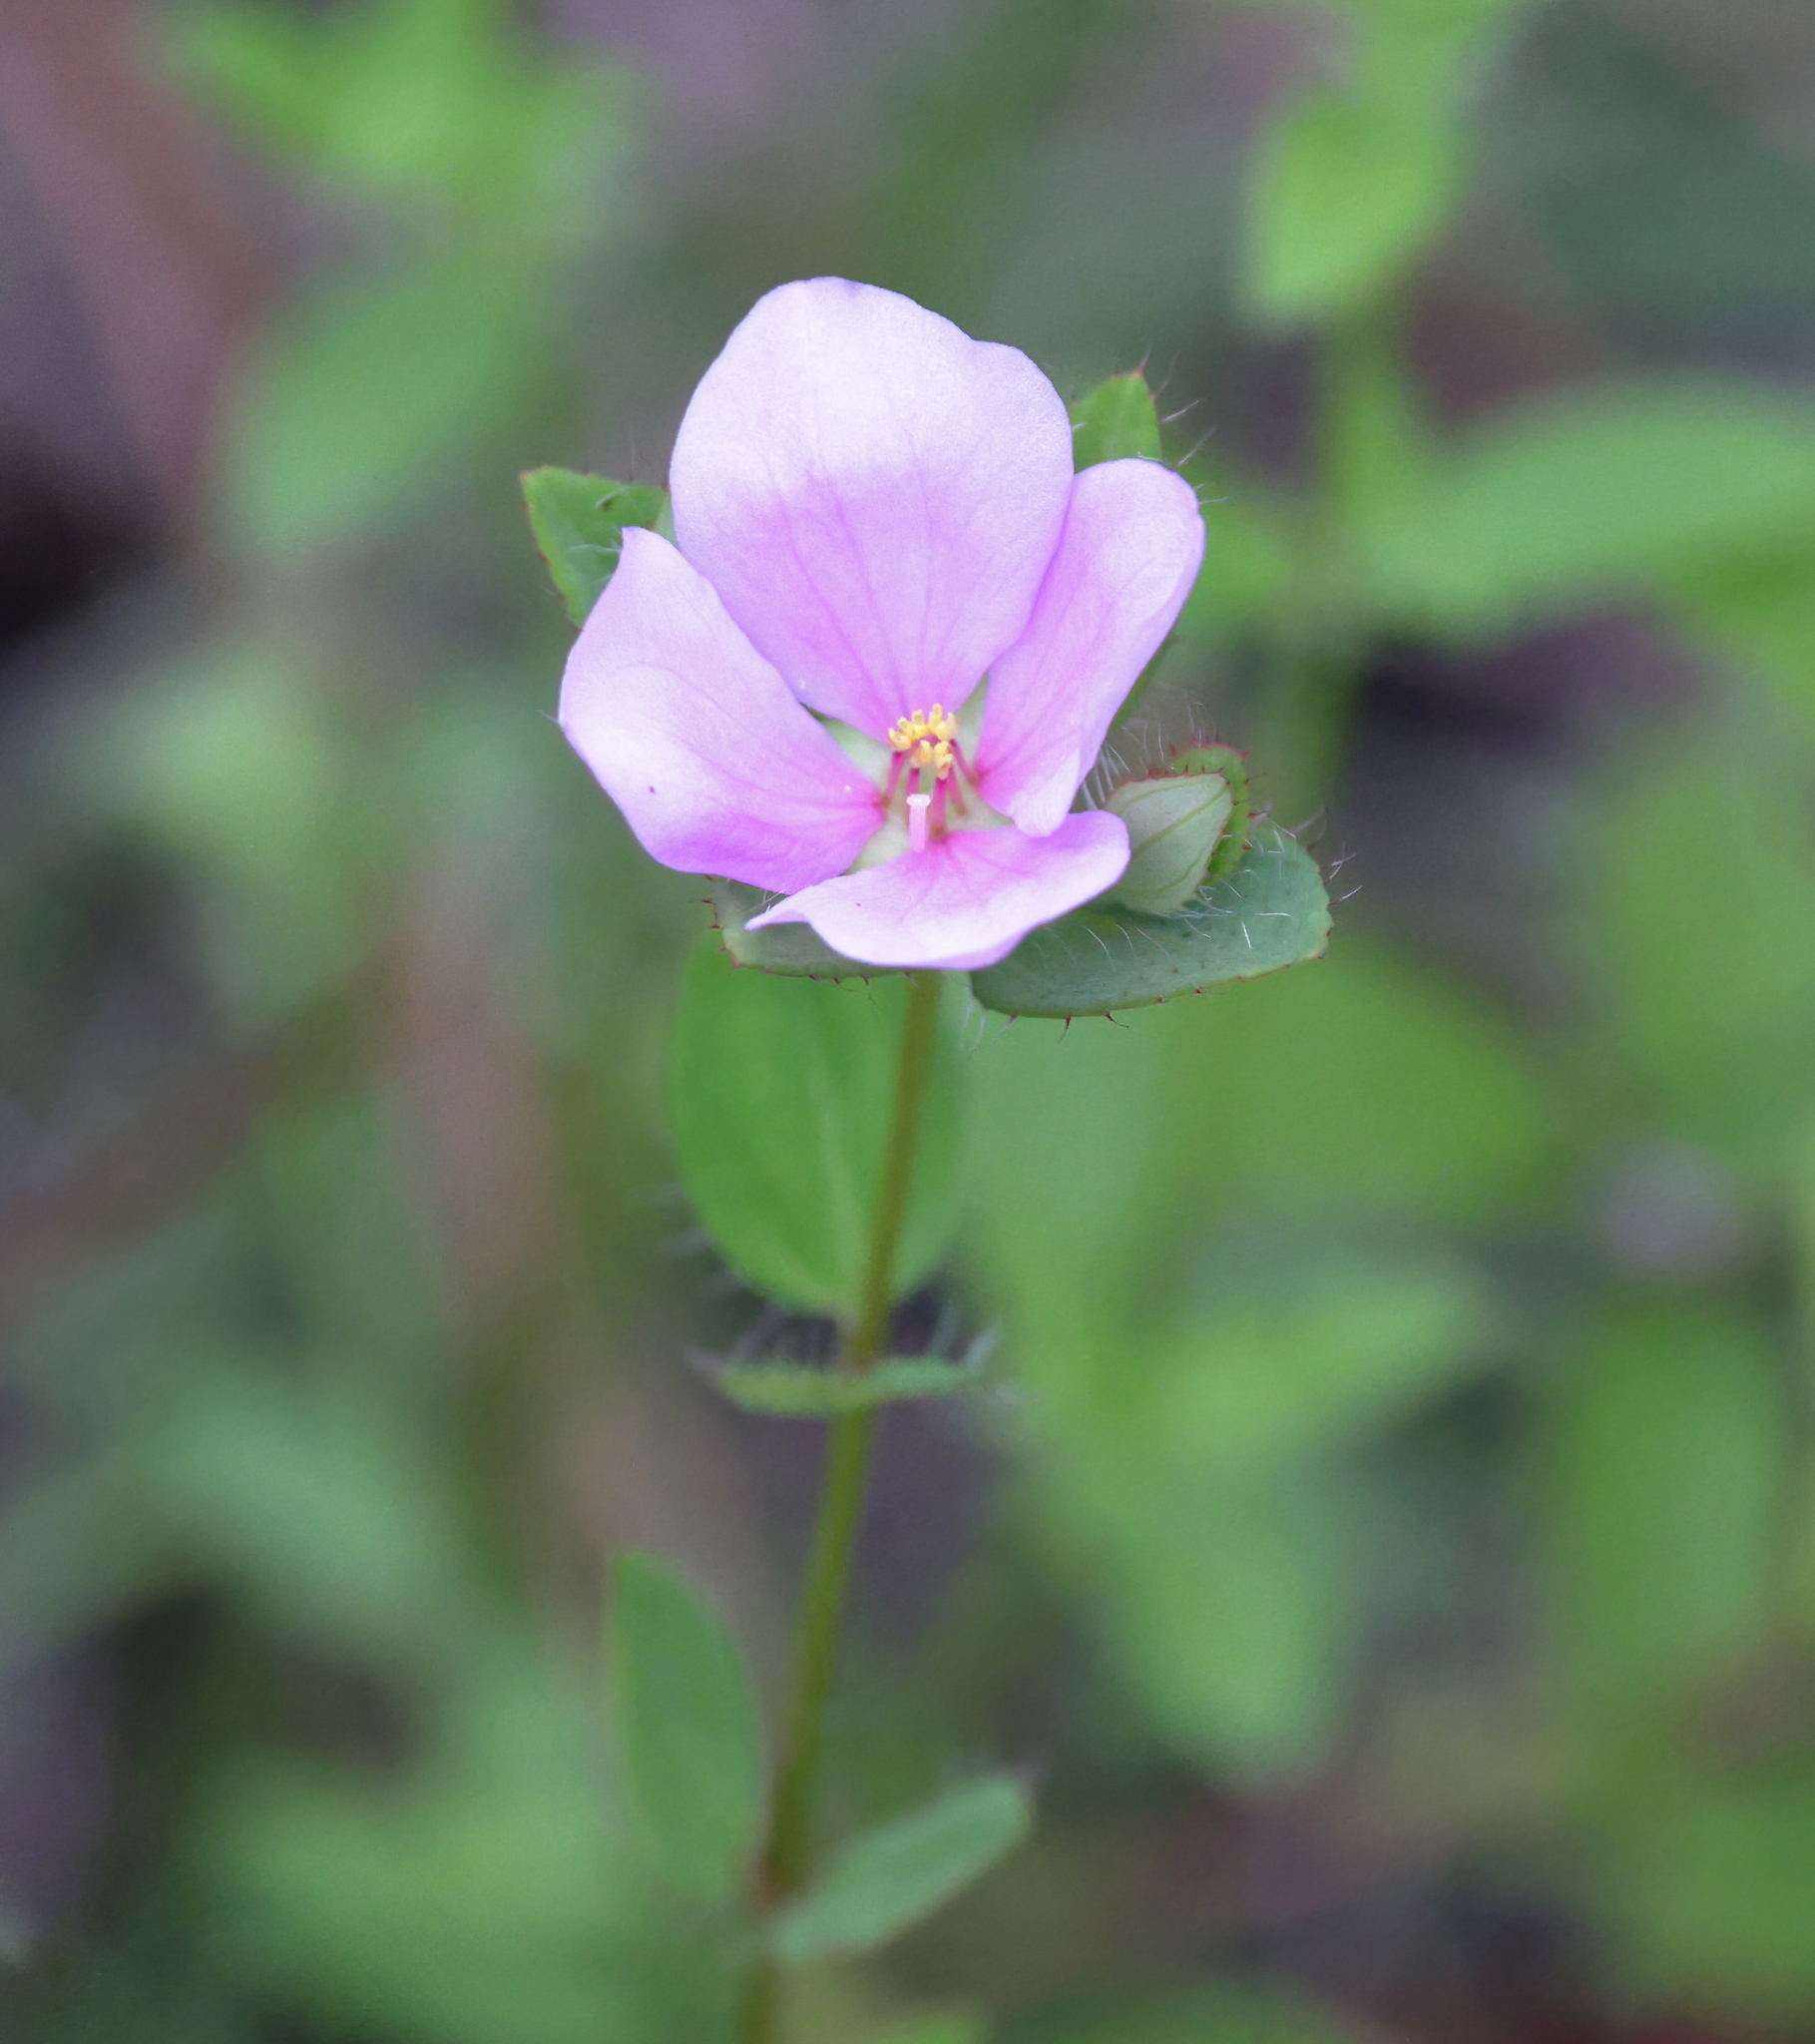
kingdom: Plantae
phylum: Tracheophyta
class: Magnoliopsida
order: Myrtales
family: Melastomataceae
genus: Rhexia
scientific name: Rhexia petiolata
